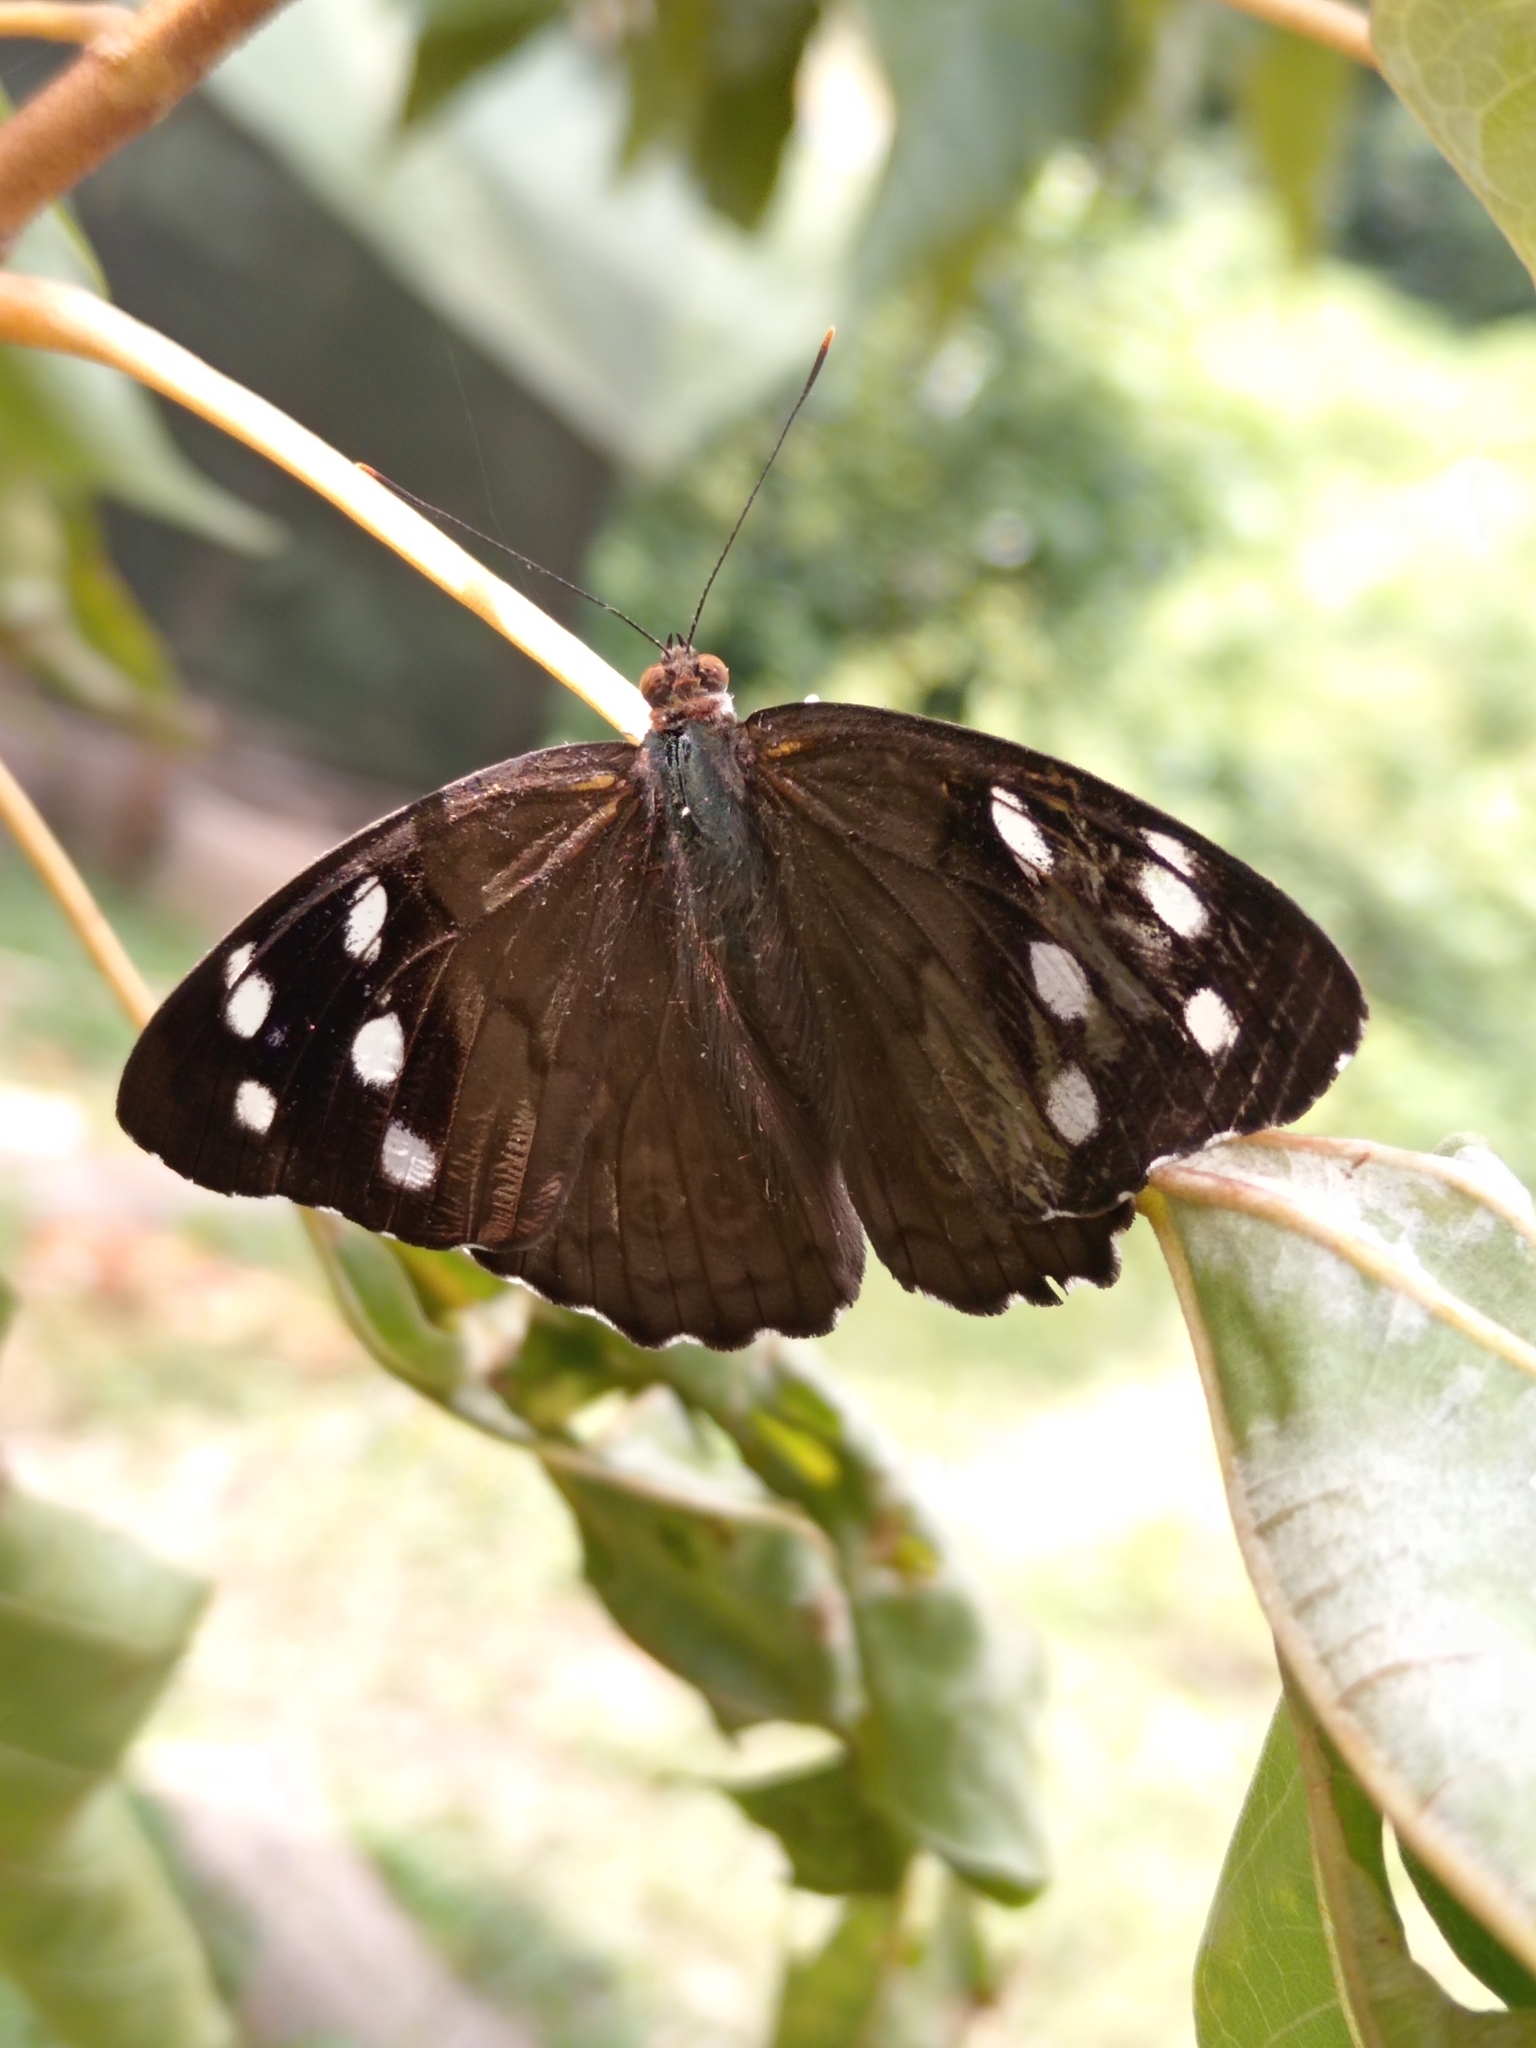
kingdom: Animalia
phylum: Arthropoda
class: Insecta
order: Lepidoptera
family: Nymphalidae
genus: Eunica
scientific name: Eunica malvina
